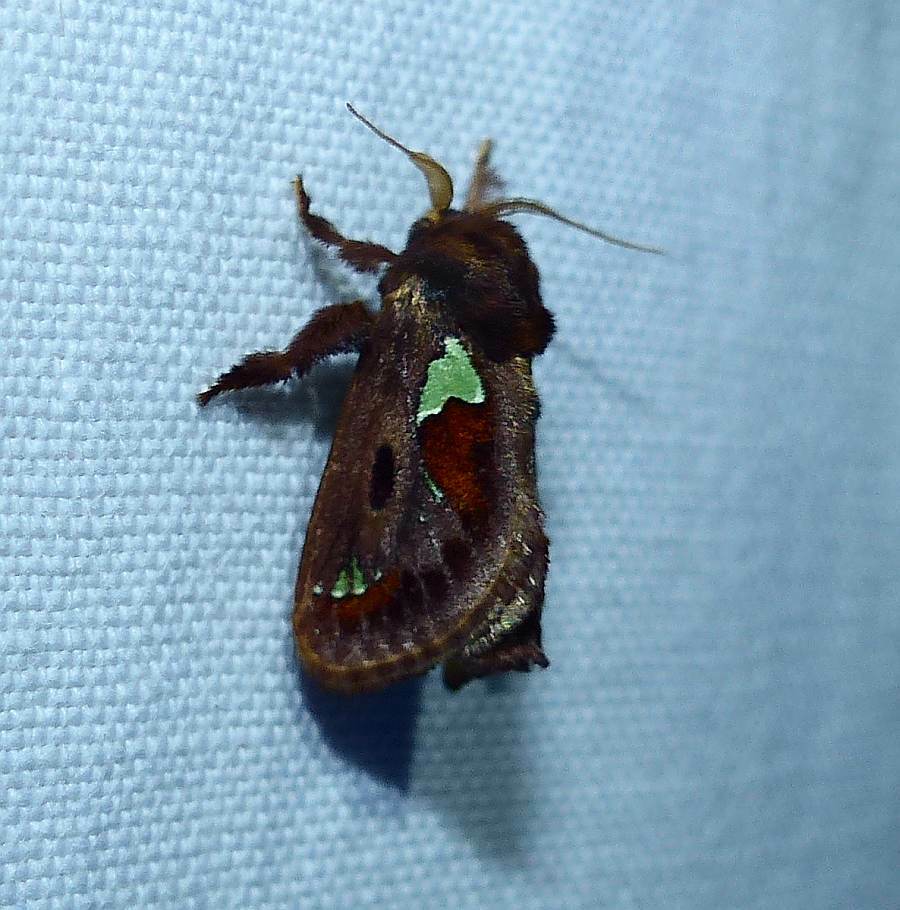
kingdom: Animalia
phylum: Arthropoda
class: Insecta
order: Lepidoptera
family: Limacodidae
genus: Euclea
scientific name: Euclea delphinii
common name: Spiny oak-slug moth
